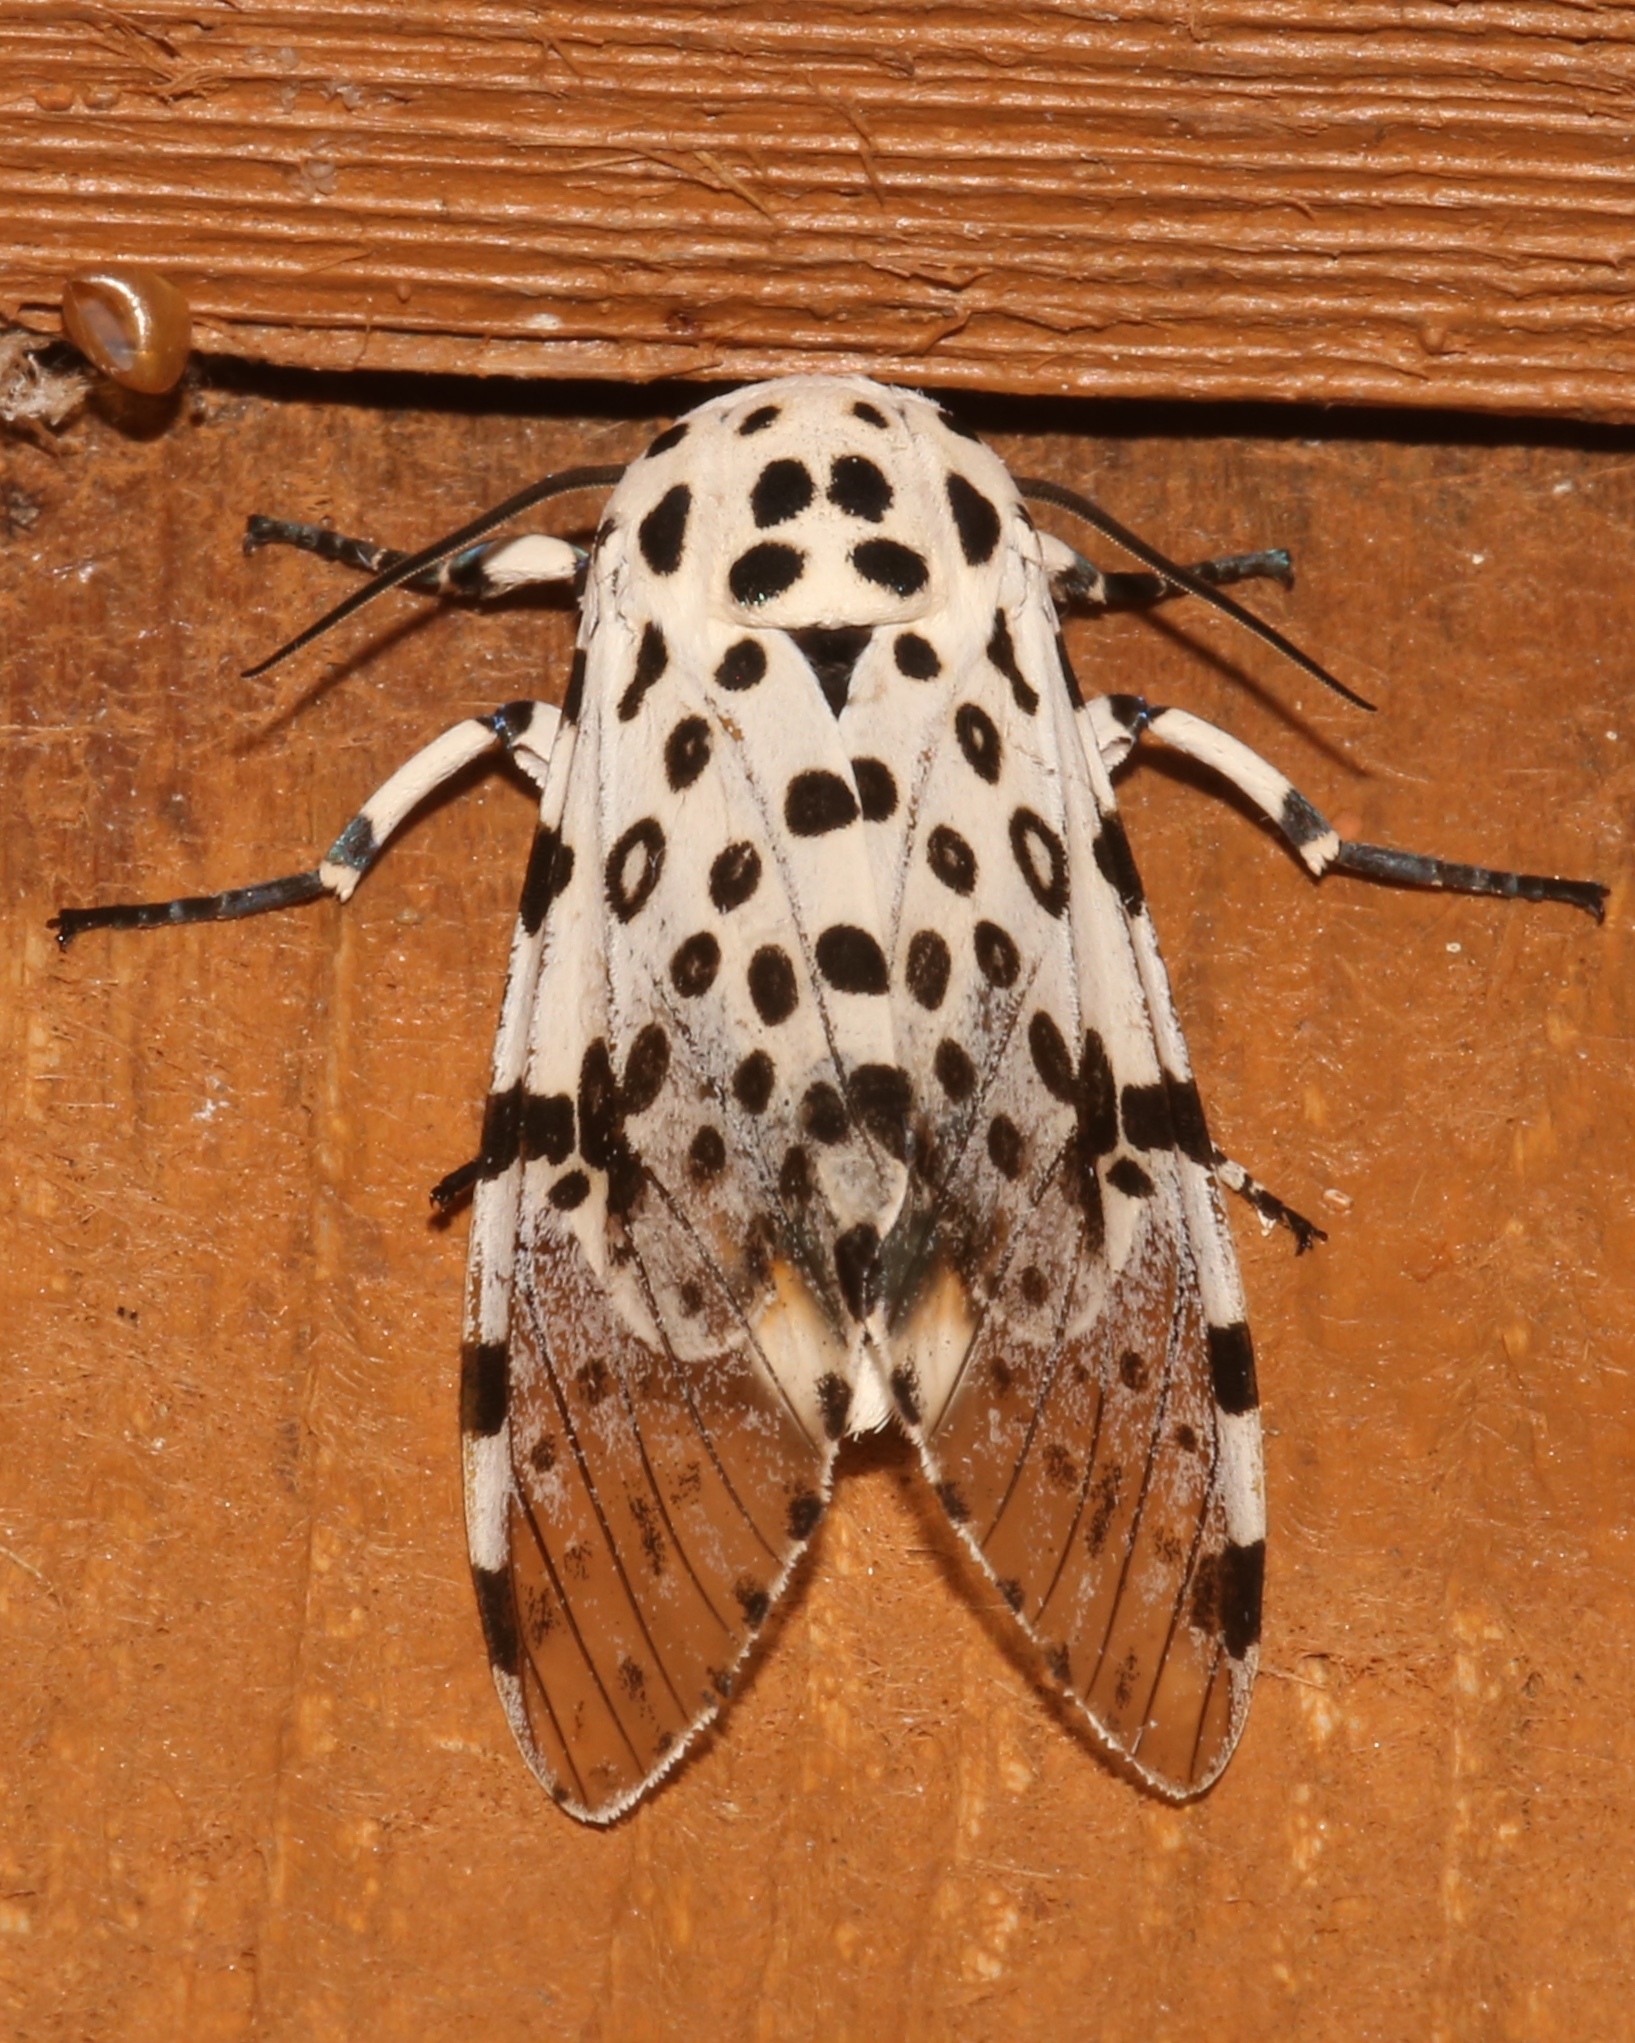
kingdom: Animalia
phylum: Arthropoda
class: Insecta
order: Lepidoptera
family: Erebidae
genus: Hypercompe
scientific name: Hypercompe scribonia
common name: Giant leopard moth
